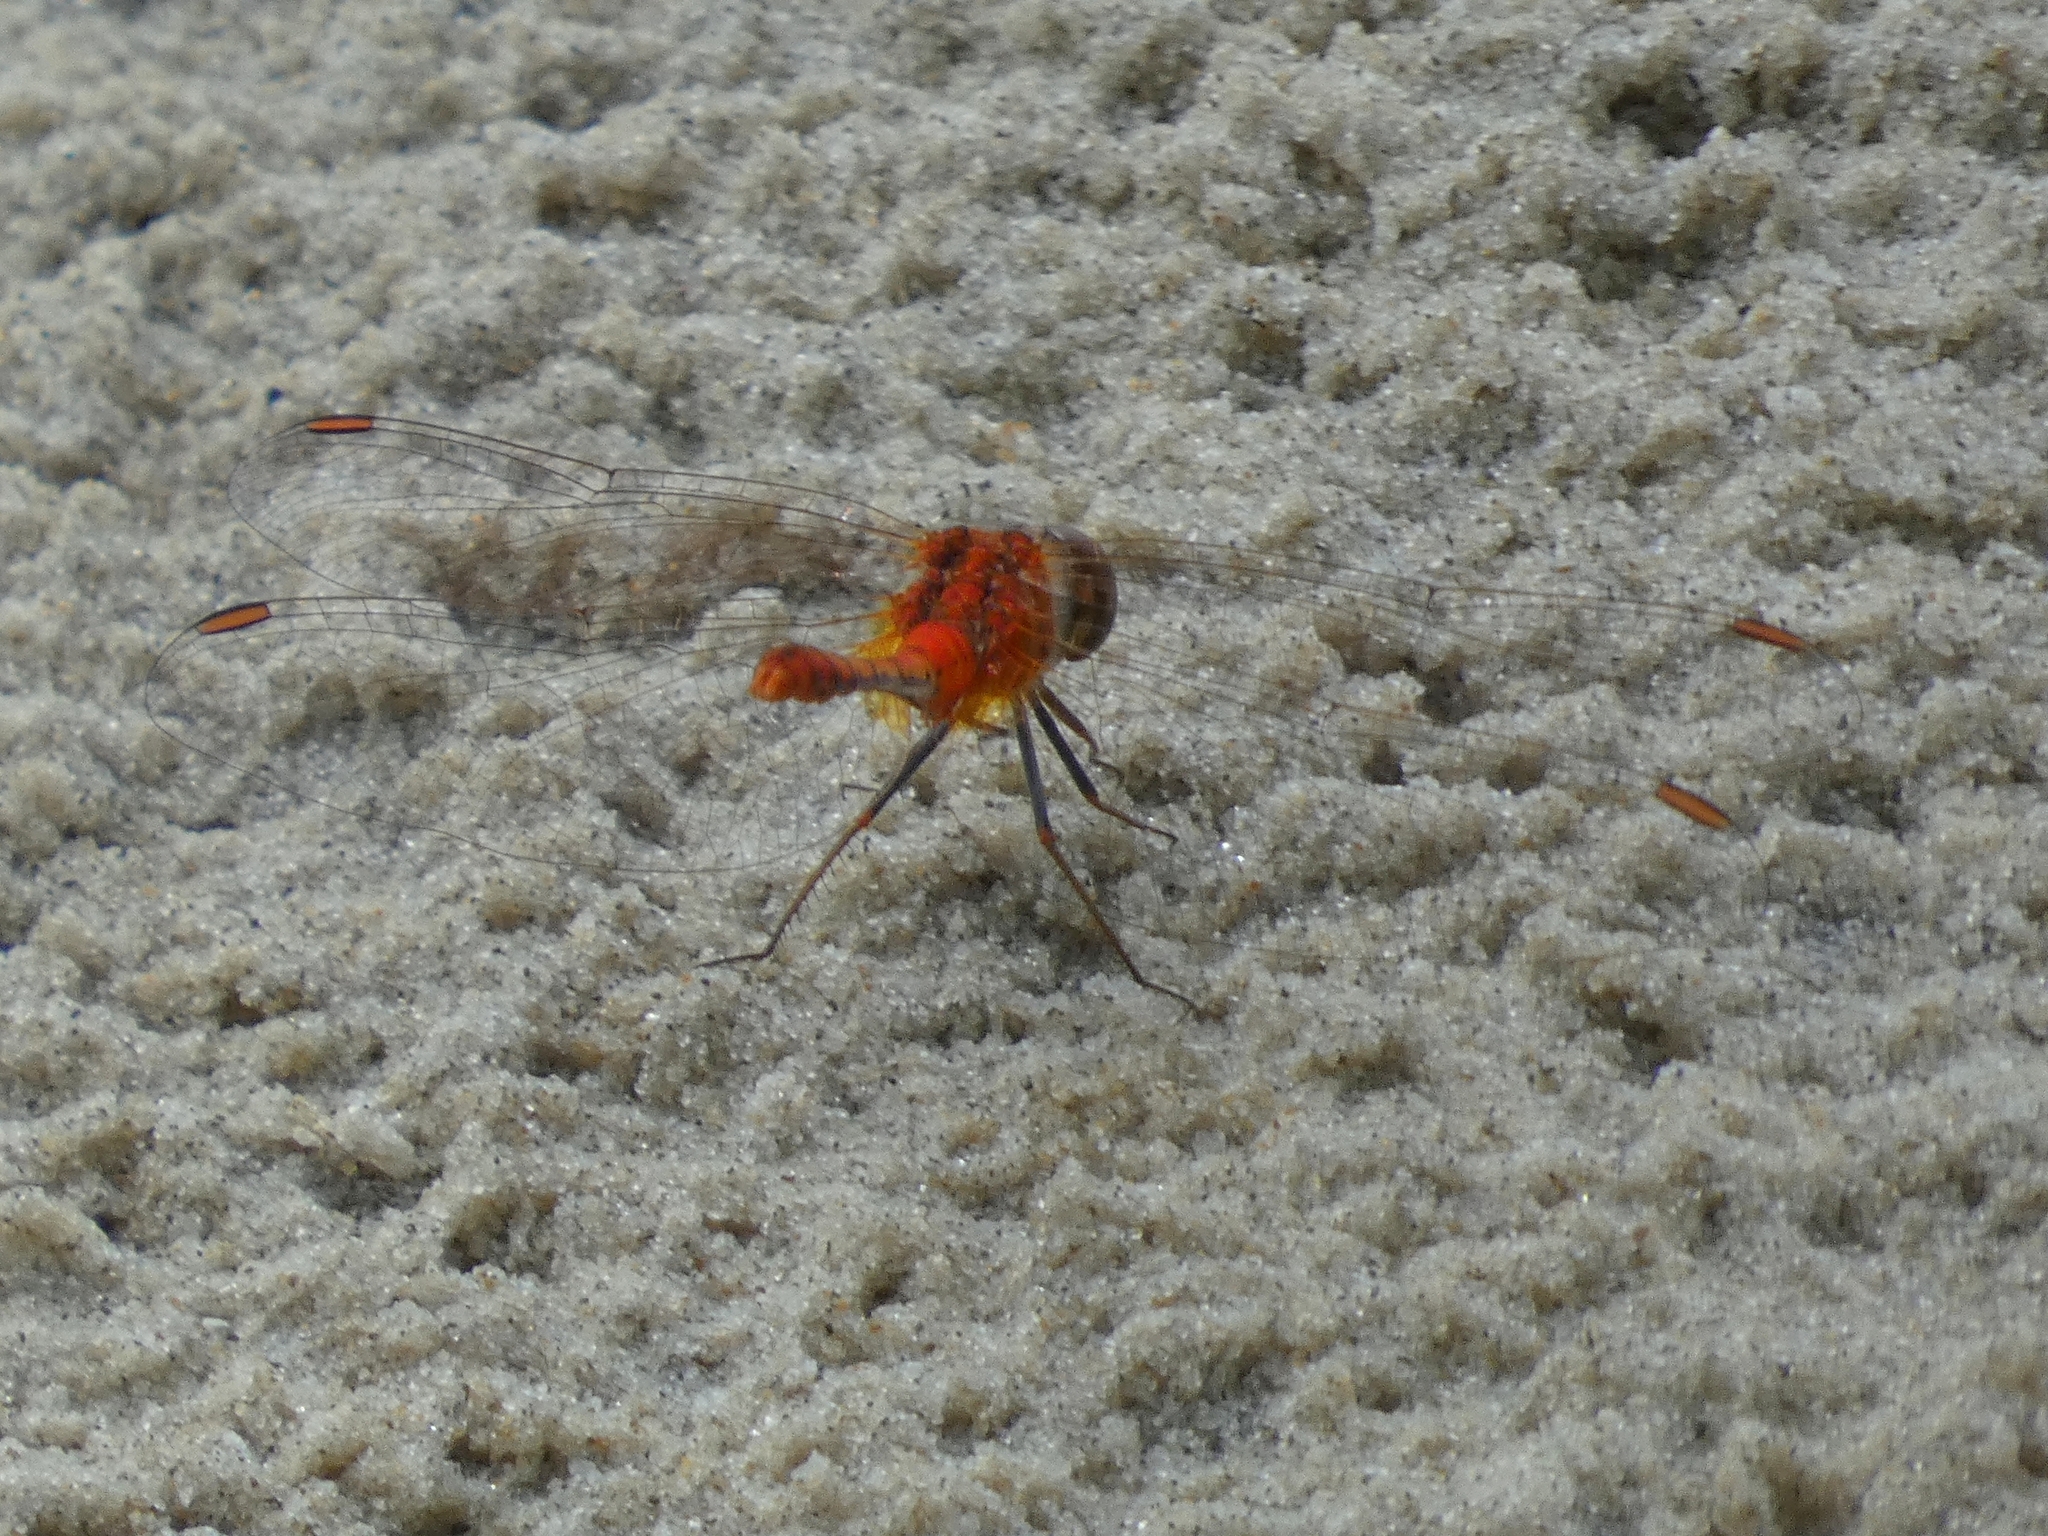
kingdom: Animalia
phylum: Arthropoda
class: Insecta
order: Odonata
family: Libellulidae
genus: Diplacodes
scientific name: Diplacodes bipunctata
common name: Red percher dragonfly
